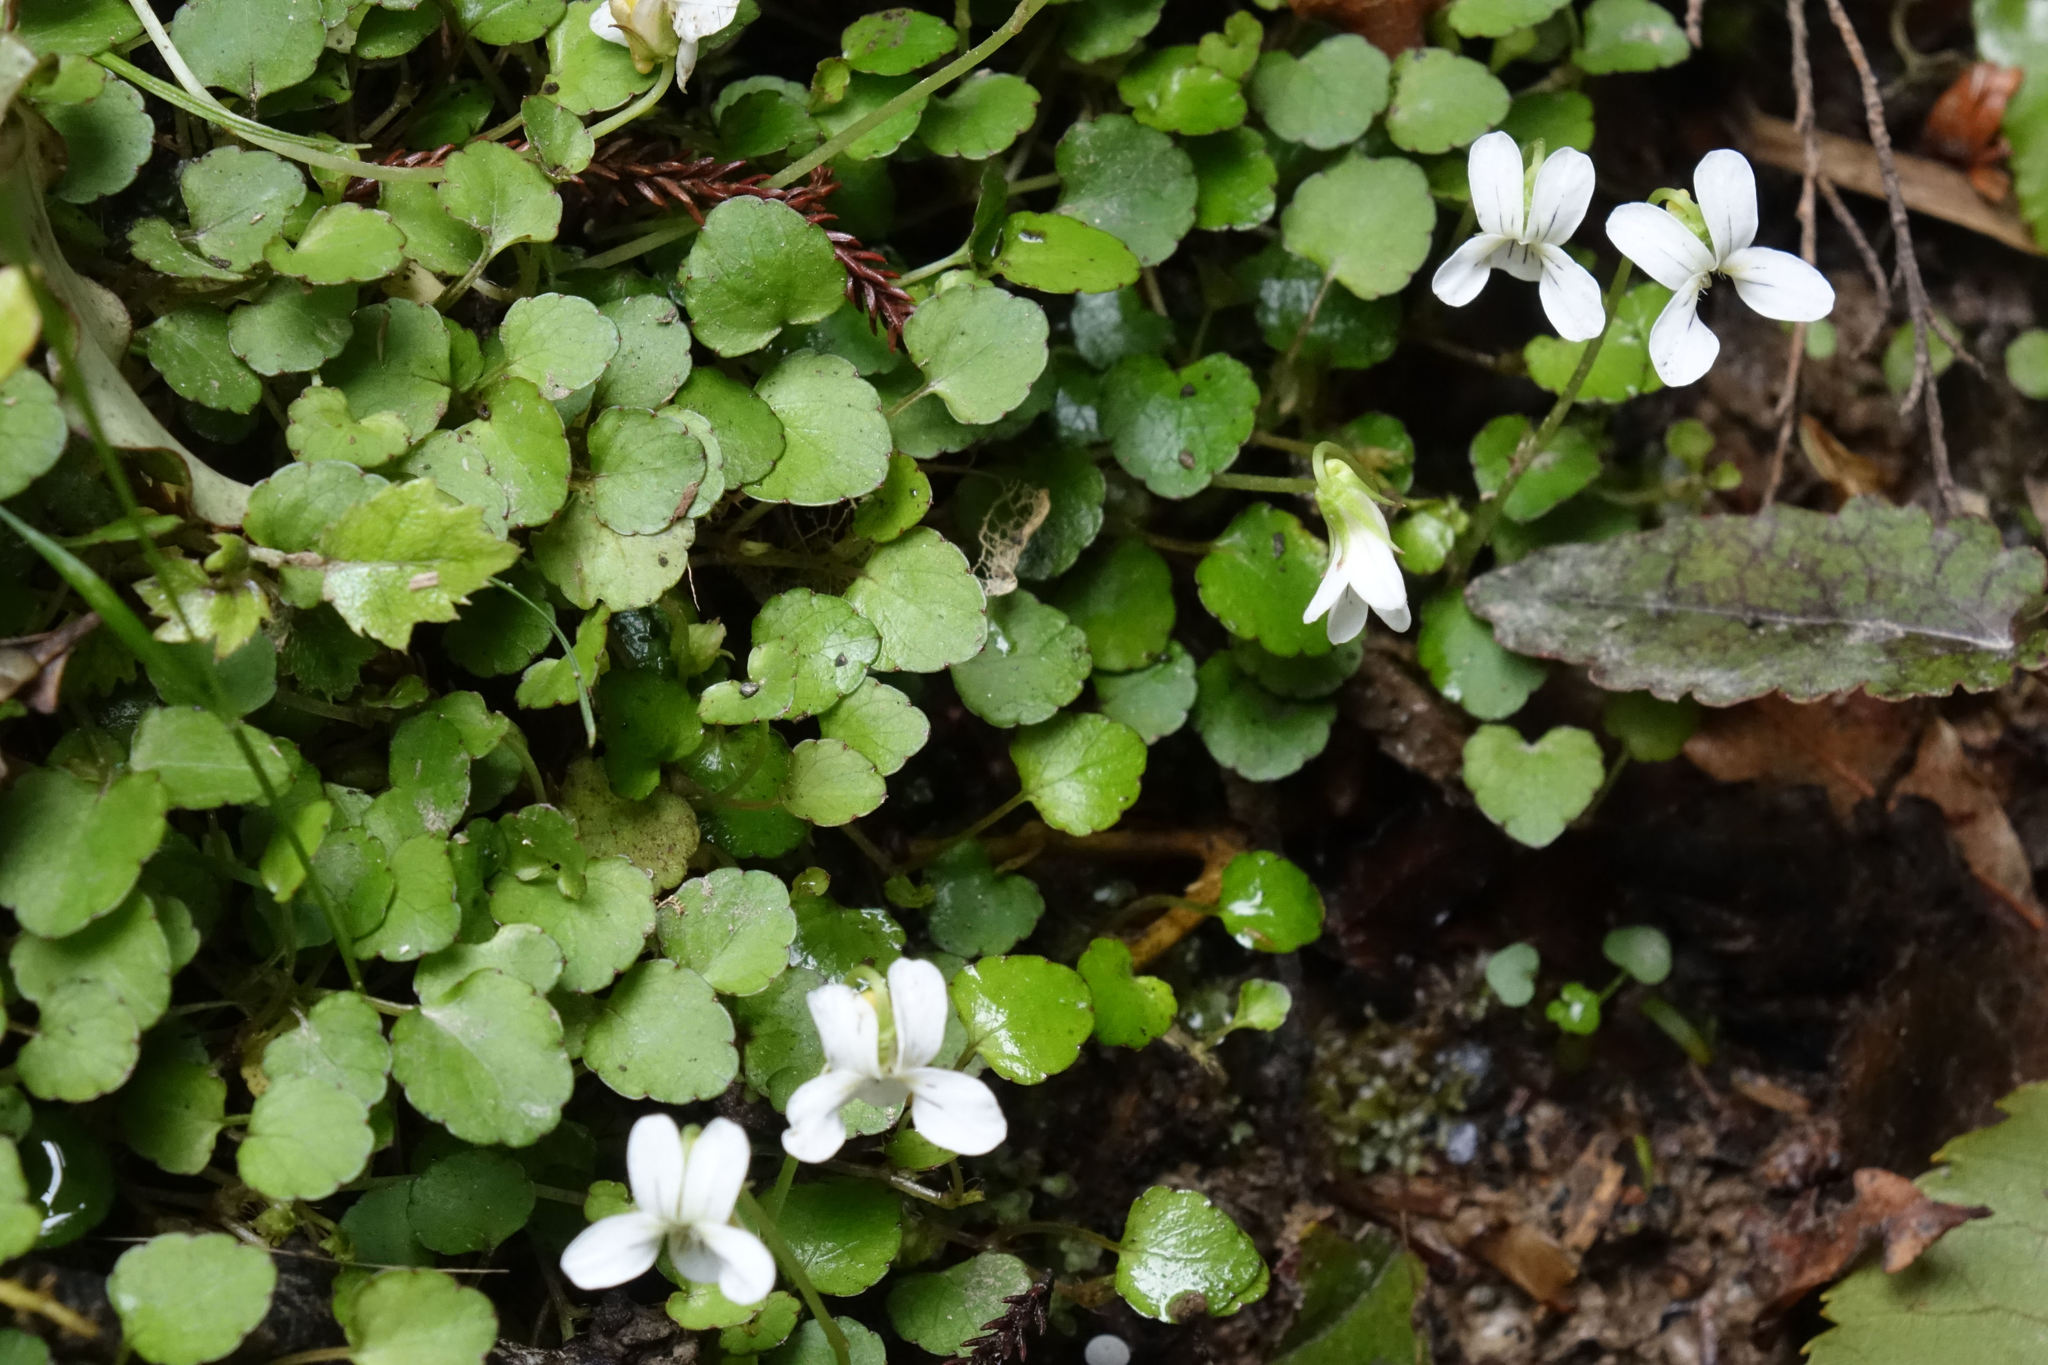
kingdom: Plantae
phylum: Tracheophyta
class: Magnoliopsida
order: Malpighiales
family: Violaceae
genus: Viola
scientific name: Viola filicaulis
